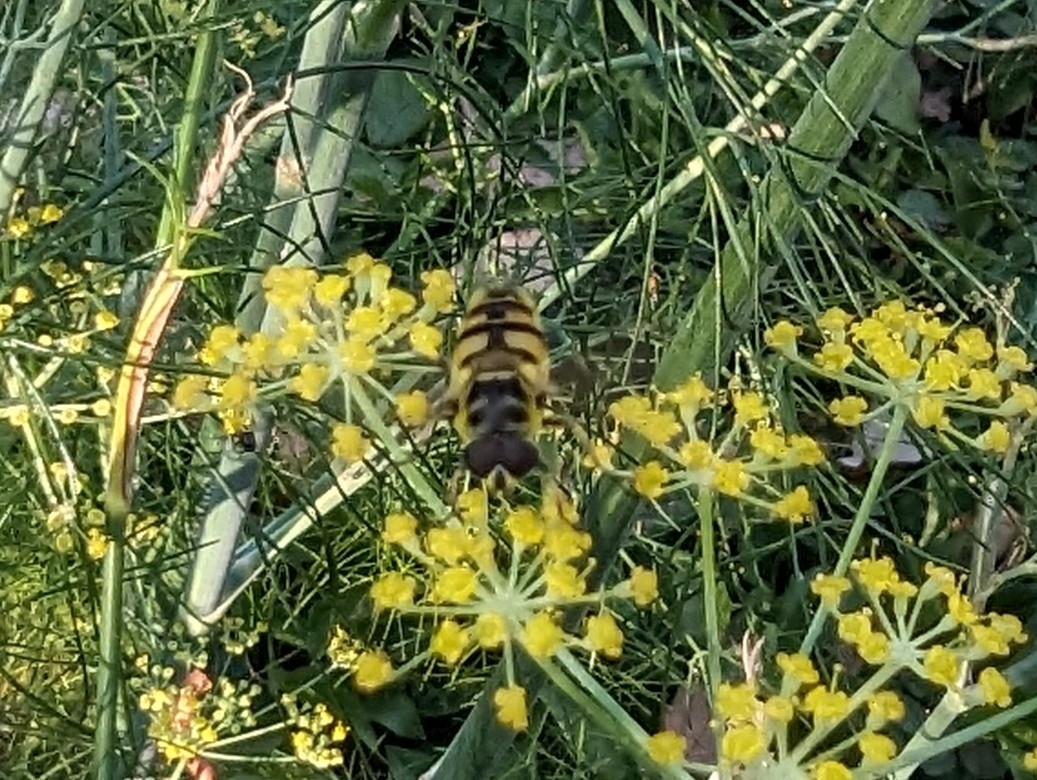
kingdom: Animalia
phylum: Arthropoda
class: Insecta
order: Diptera
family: Syrphidae
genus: Myathropa
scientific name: Myathropa florea
